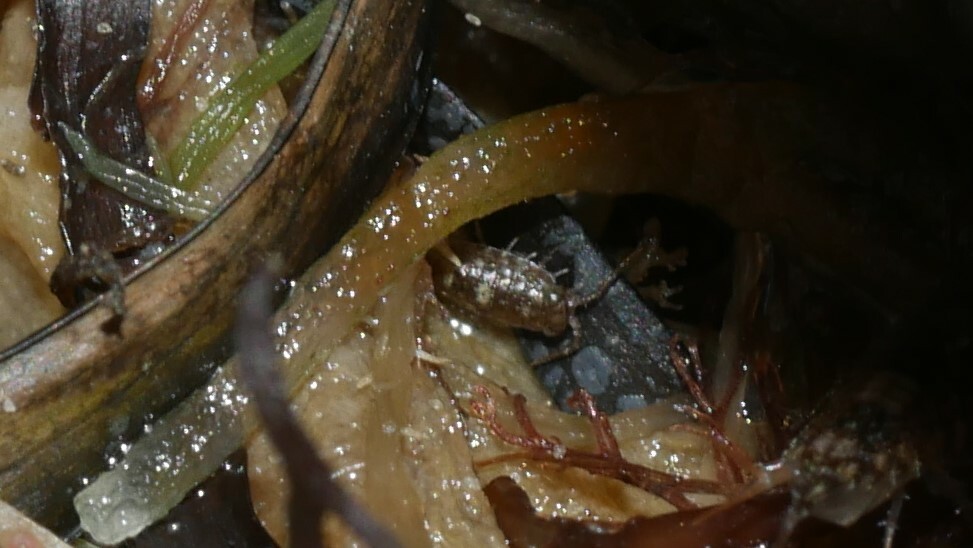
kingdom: Animalia
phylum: Arthropoda
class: Malacostraca
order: Isopoda
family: Ligiidae
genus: Ligia
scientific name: Ligia exotica
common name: Wharf roach
